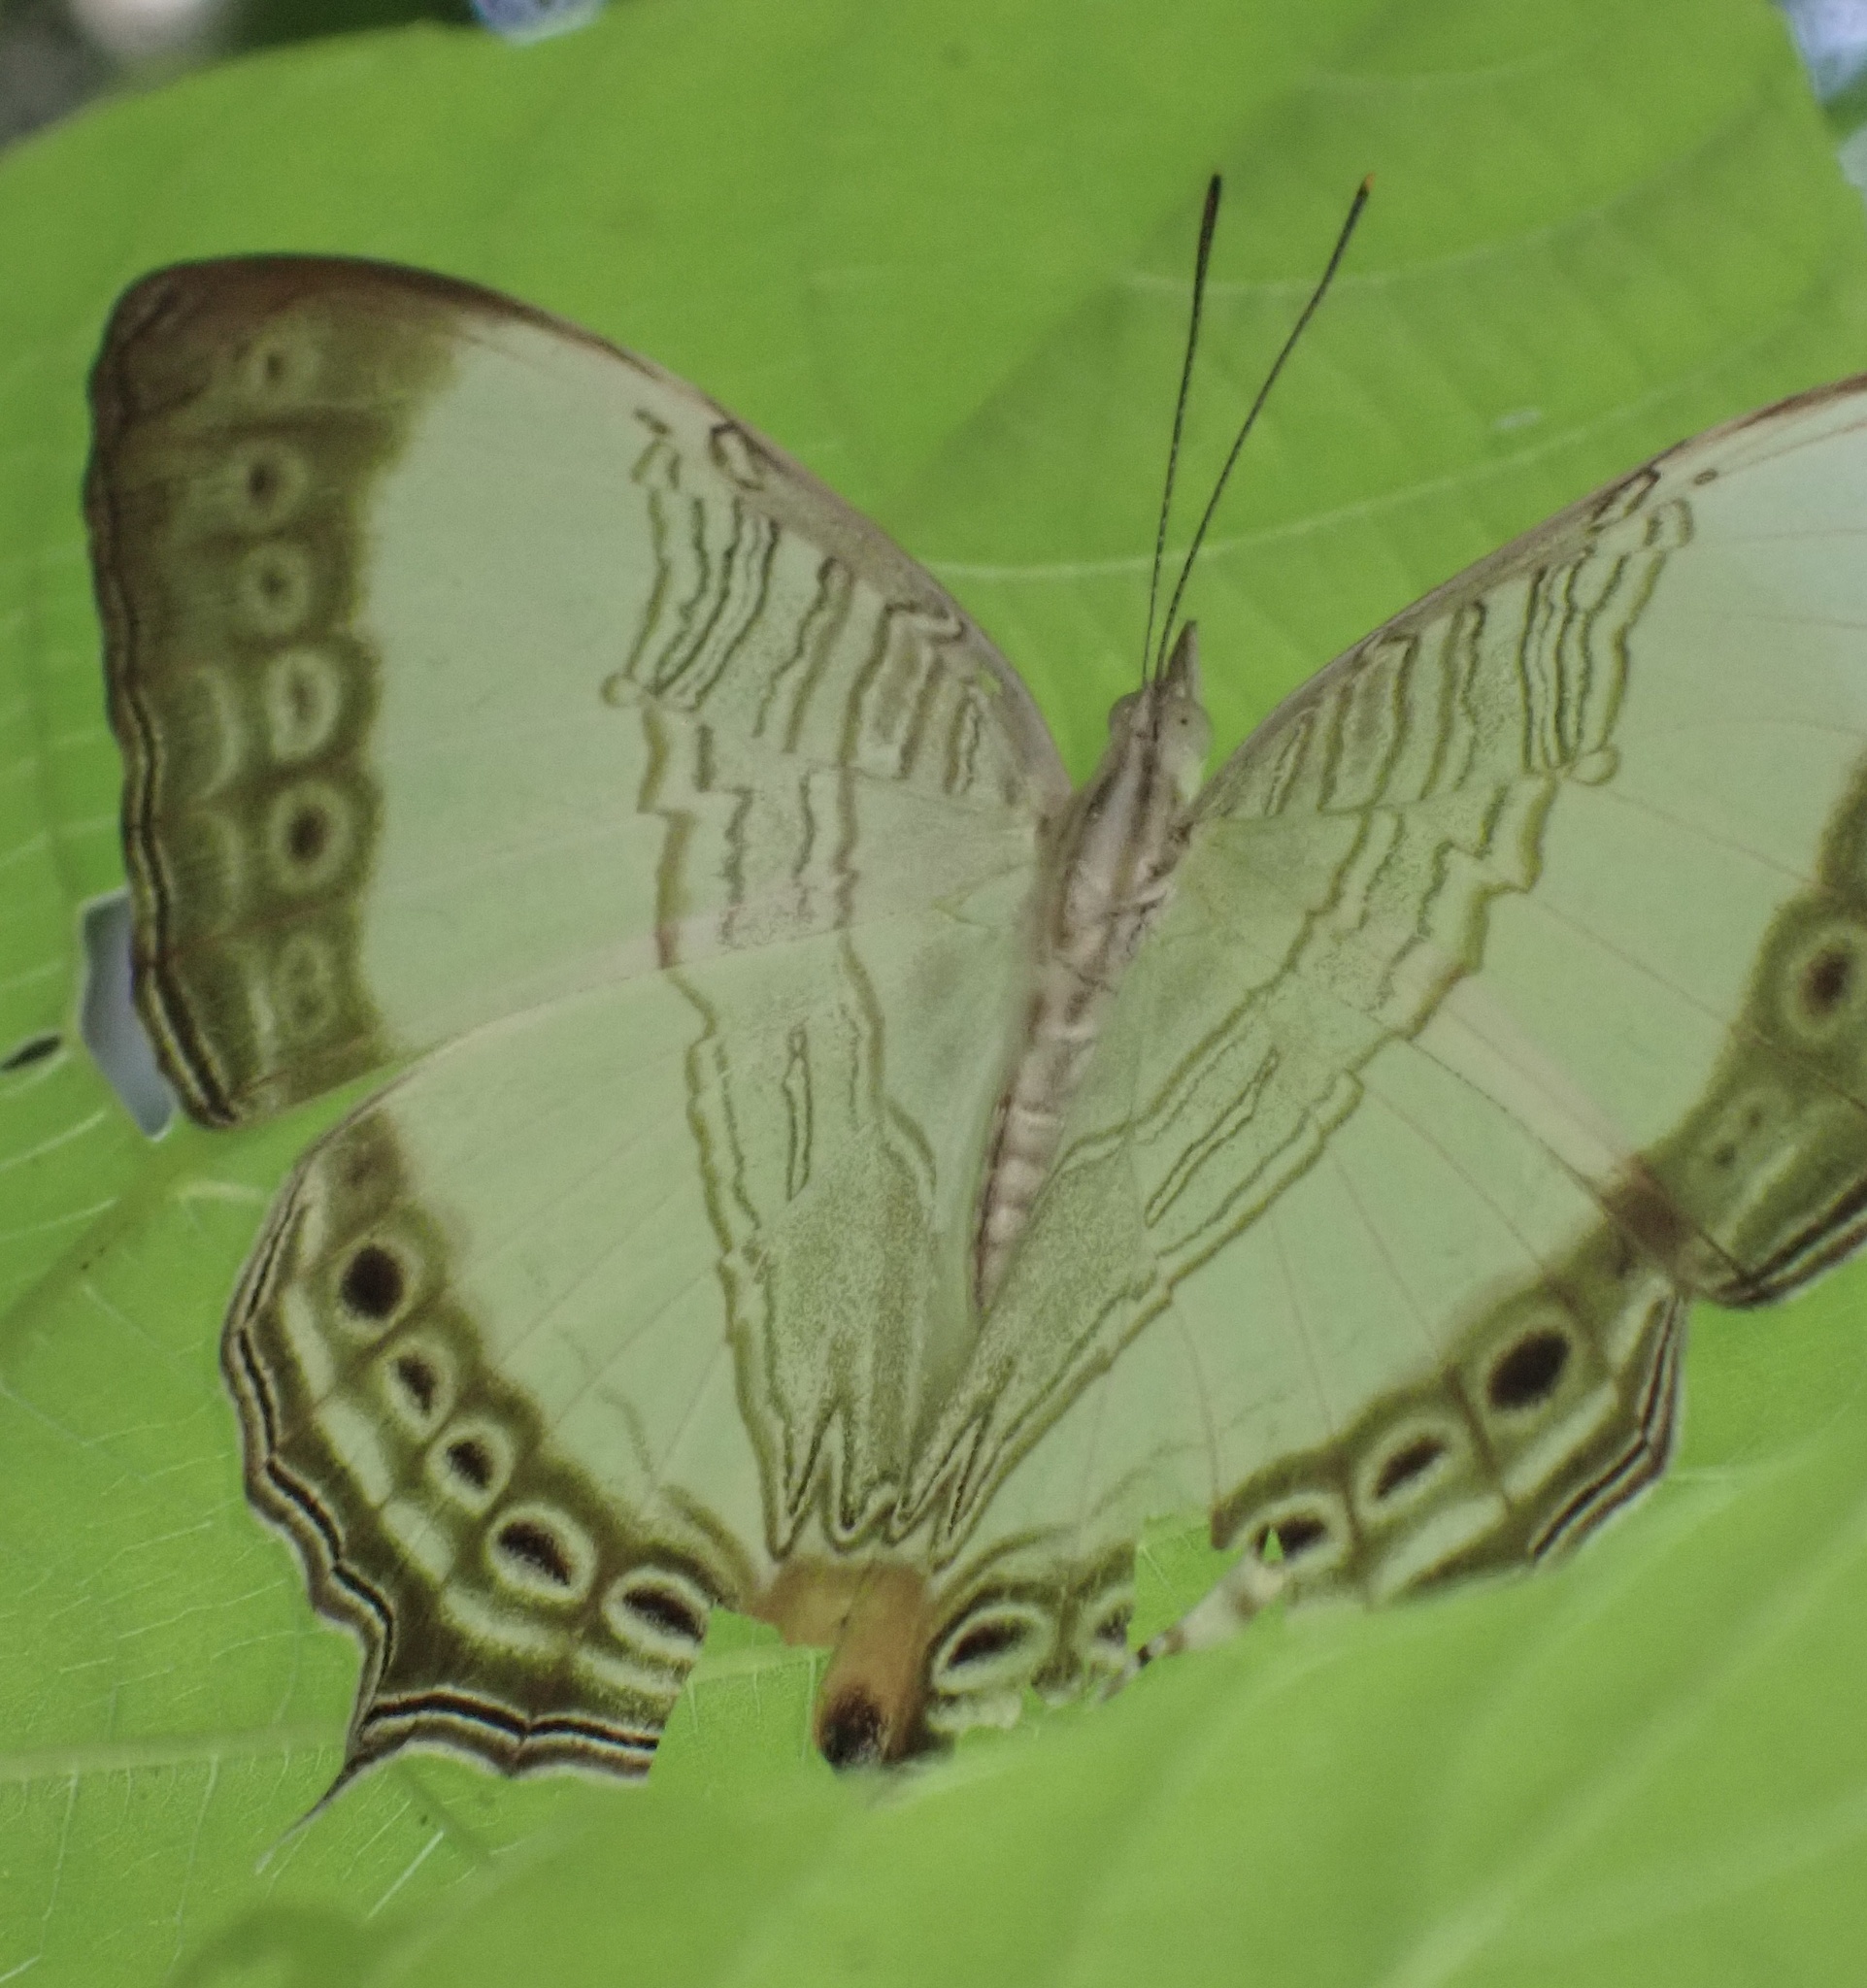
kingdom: Animalia
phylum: Arthropoda
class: Insecta
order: Lepidoptera
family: Nymphalidae
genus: Cyrestis
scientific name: Cyrestis paulinus
